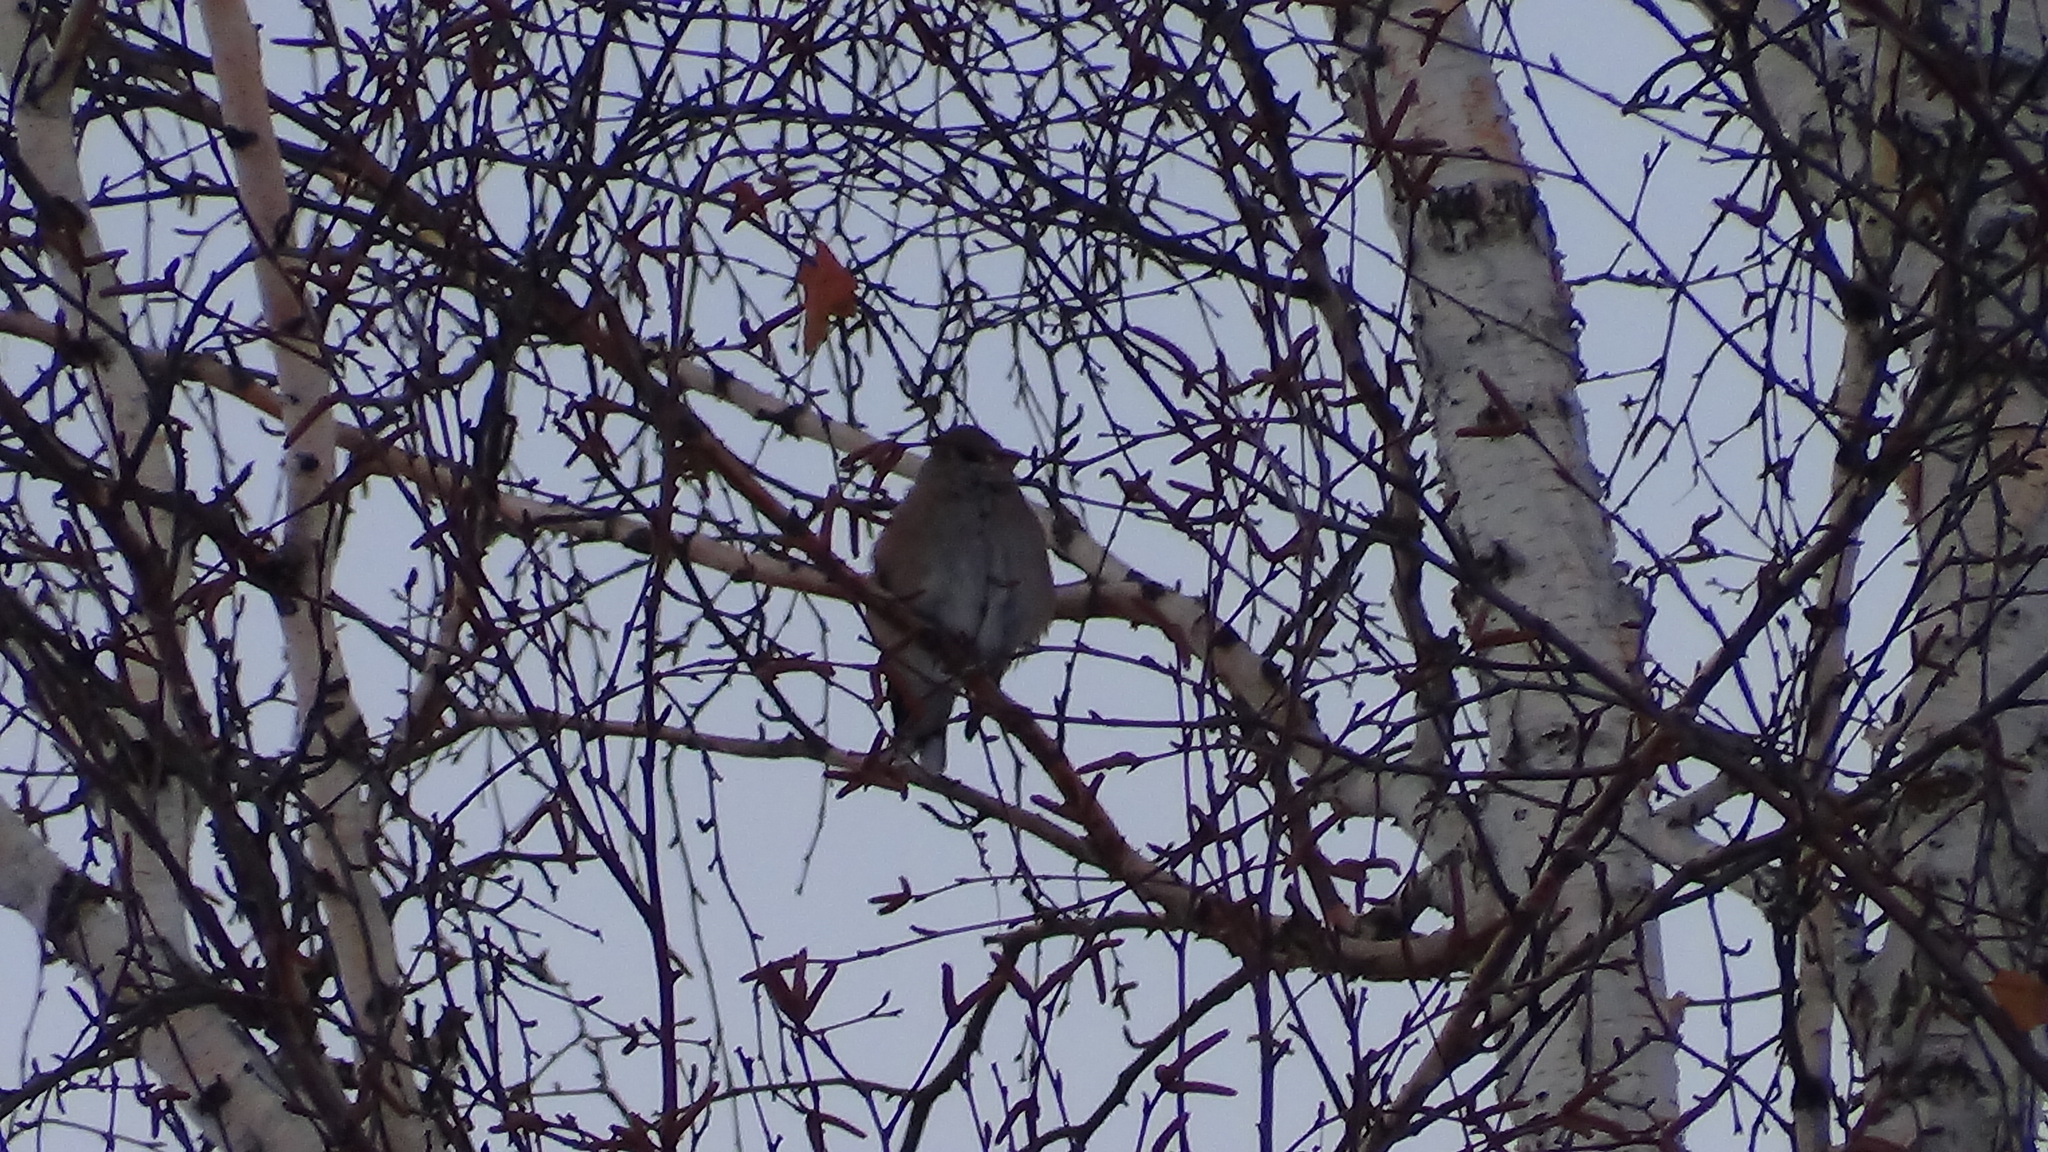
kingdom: Animalia
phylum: Chordata
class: Aves
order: Passeriformes
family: Fringillidae
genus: Coccothraustes
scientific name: Coccothraustes coccothraustes
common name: Hawfinch
